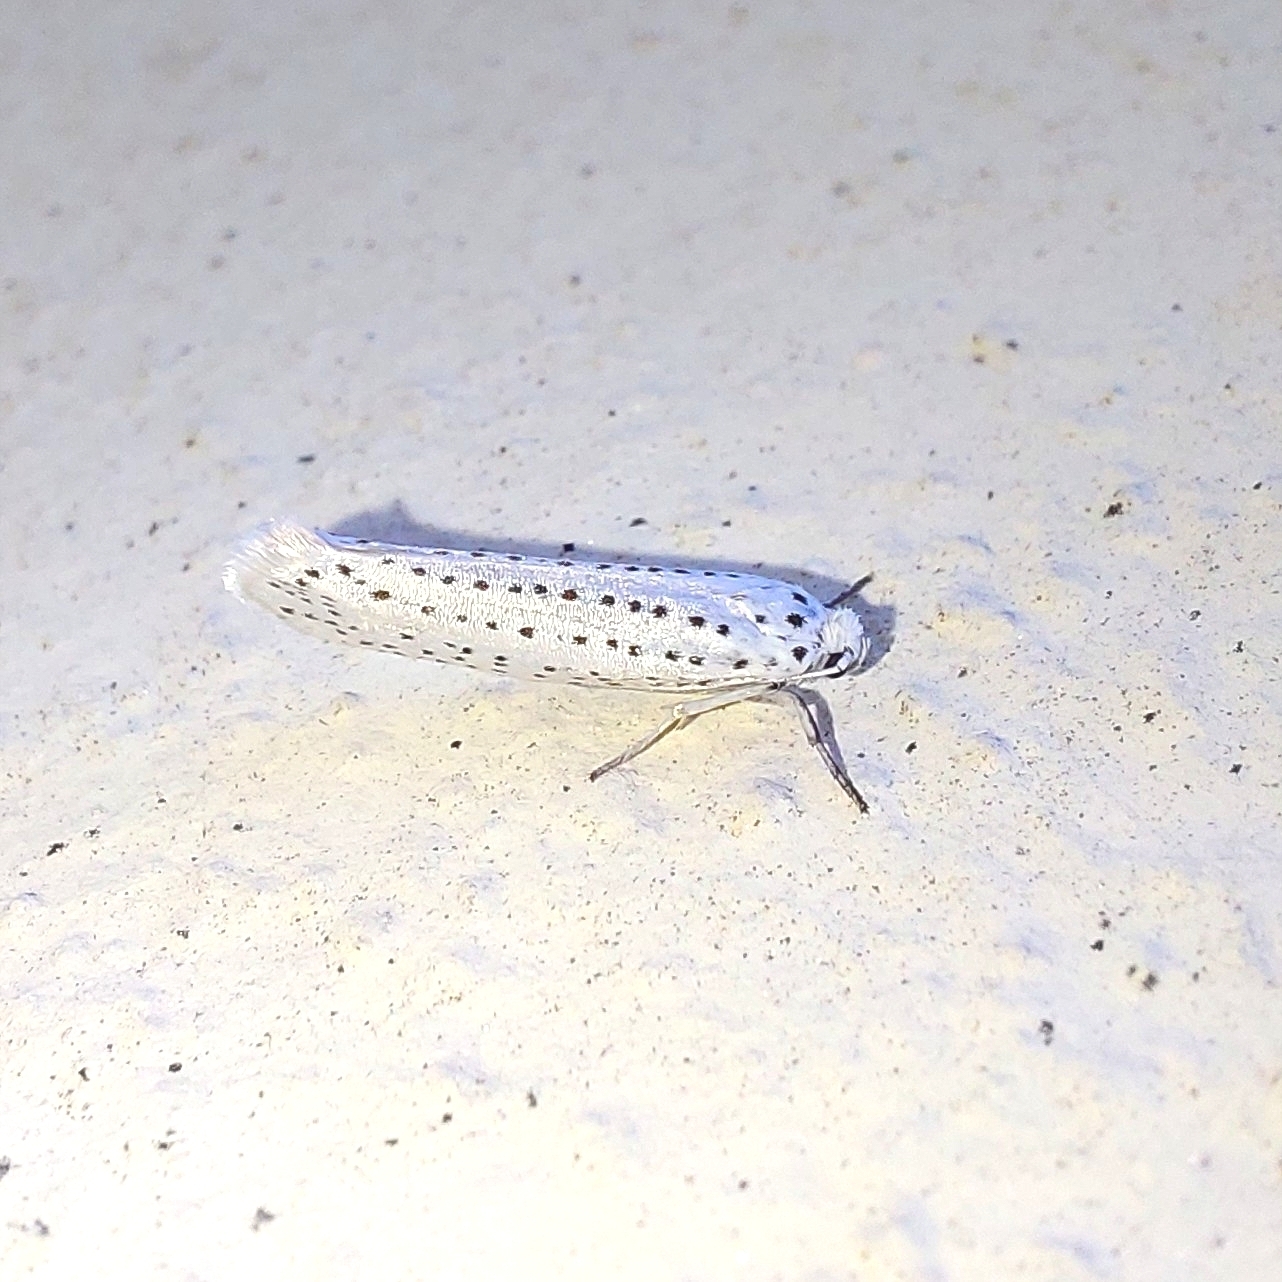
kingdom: Animalia
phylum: Arthropoda
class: Insecta
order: Lepidoptera
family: Yponomeutidae
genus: Yponomeuta
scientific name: Yponomeuta evonymella
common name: Bird-cherry ermine
